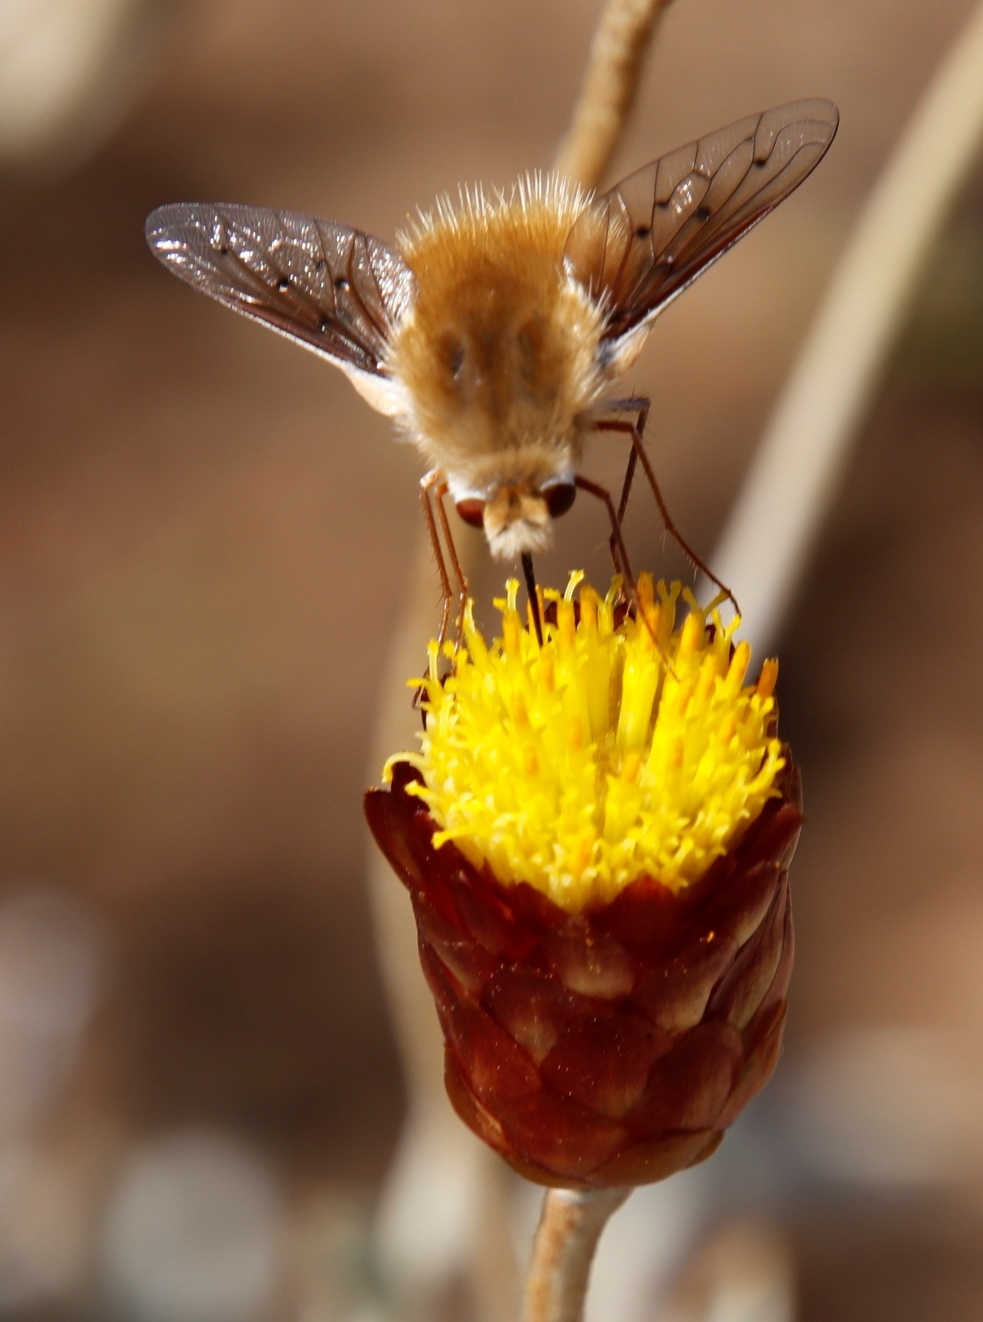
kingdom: Animalia
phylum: Arthropoda
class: Insecta
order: Diptera
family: Bombyliidae
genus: Australoechus
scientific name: Australoechus micans
